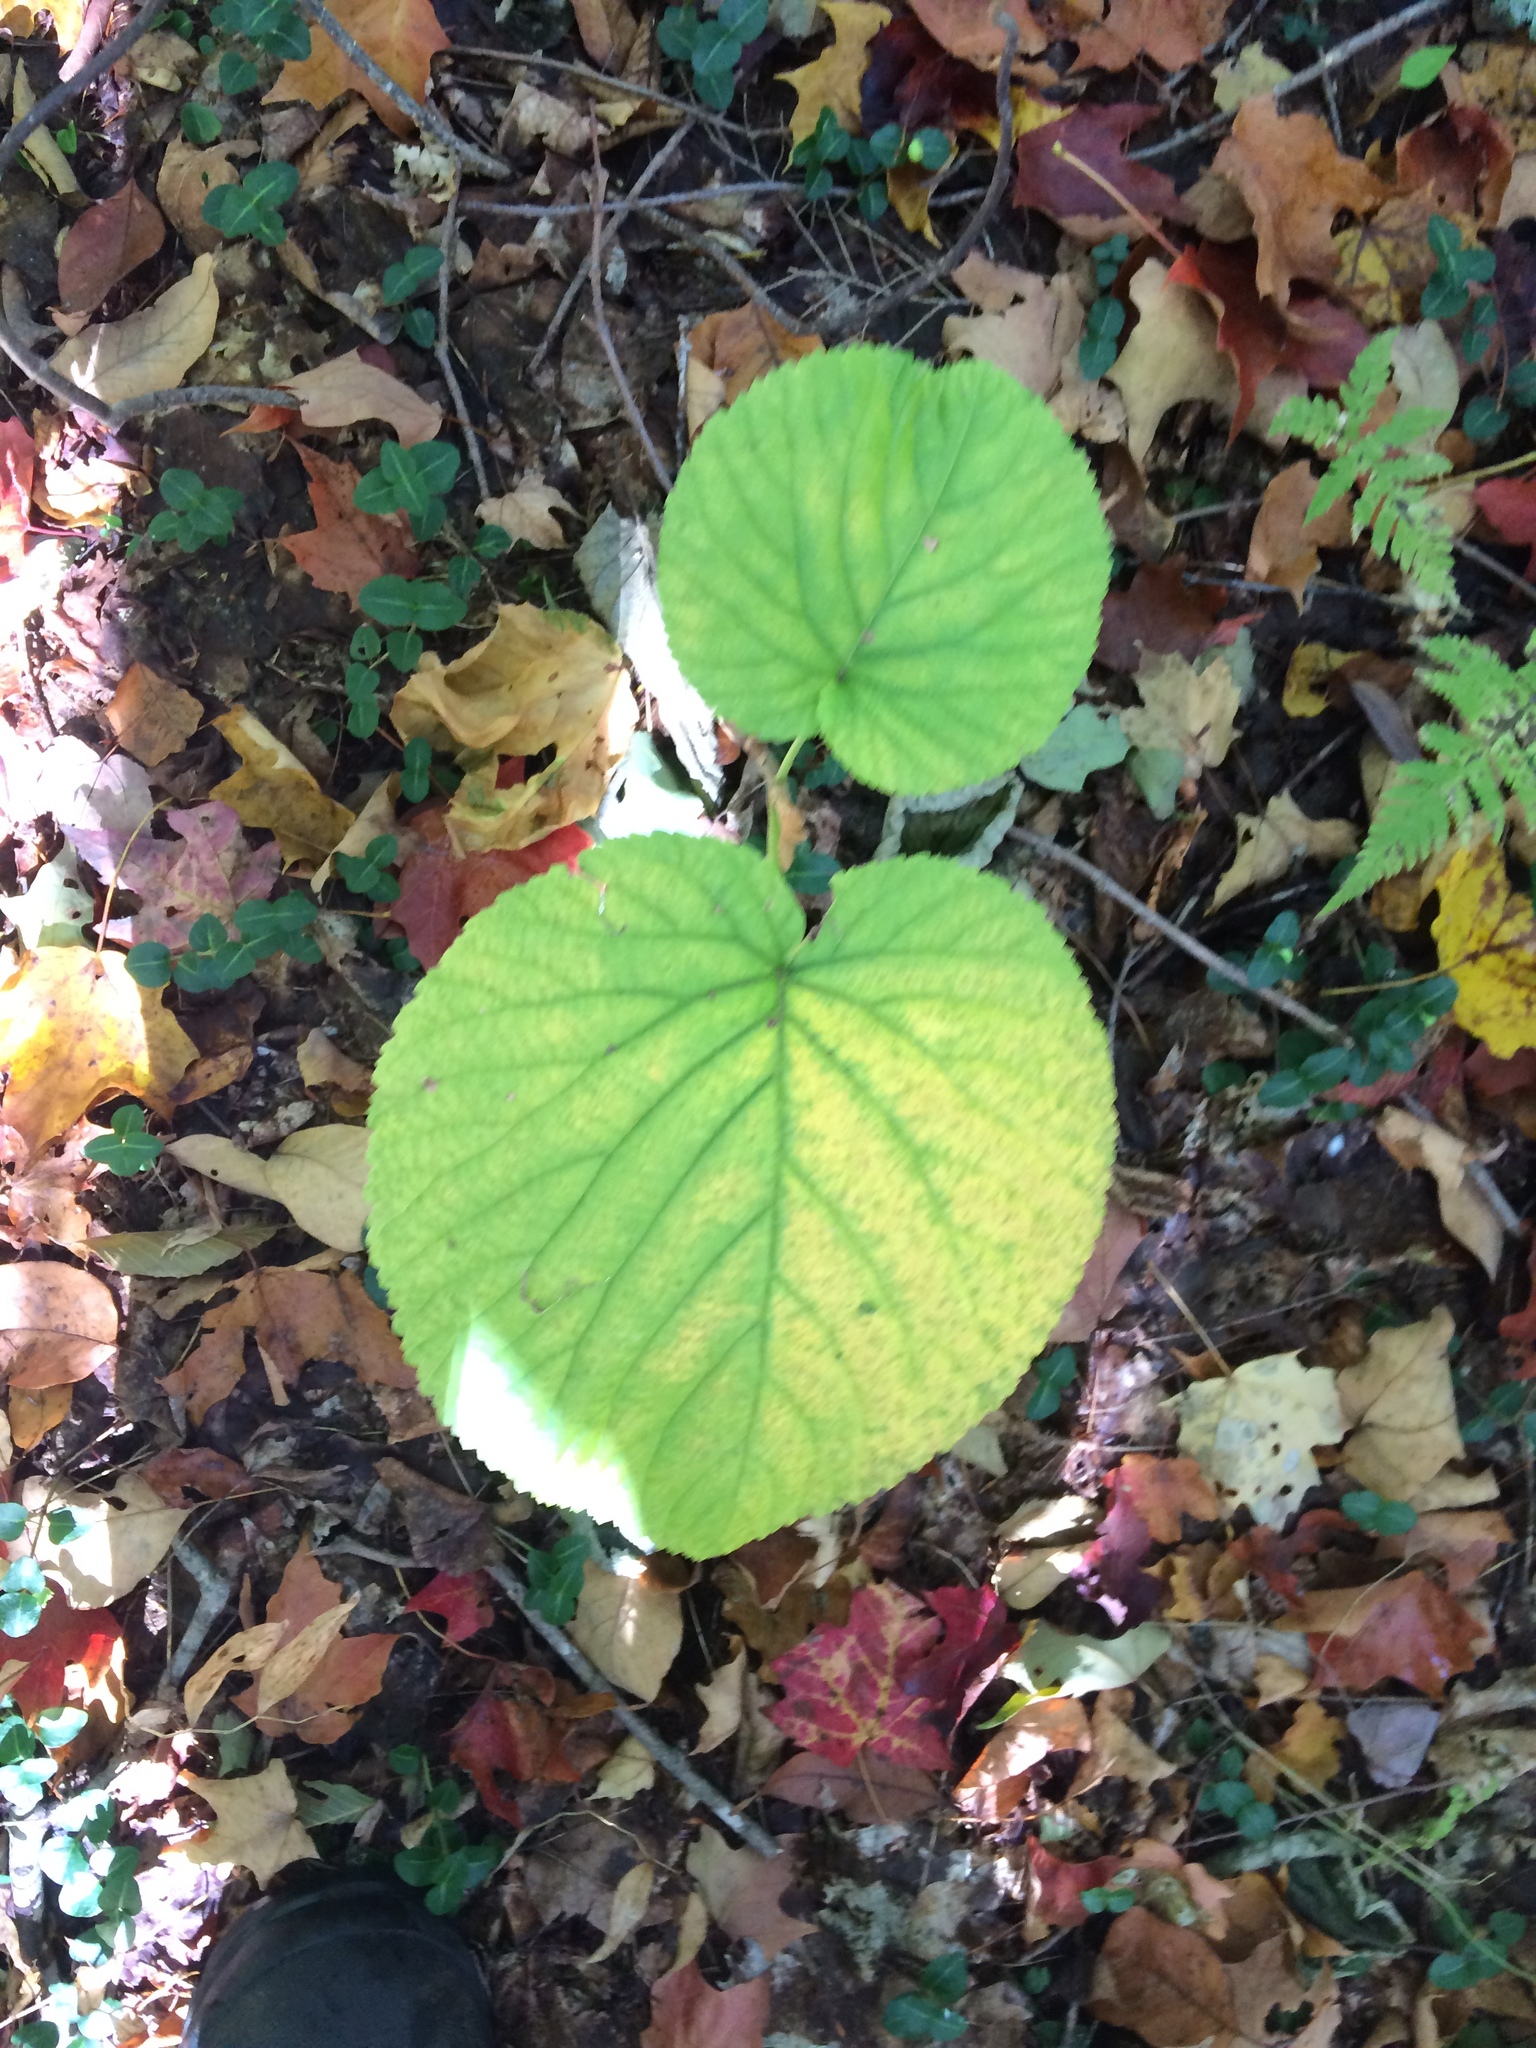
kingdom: Plantae
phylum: Tracheophyta
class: Magnoliopsida
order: Dipsacales
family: Viburnaceae
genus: Viburnum
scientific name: Viburnum lantanoides
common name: Hobblebush
